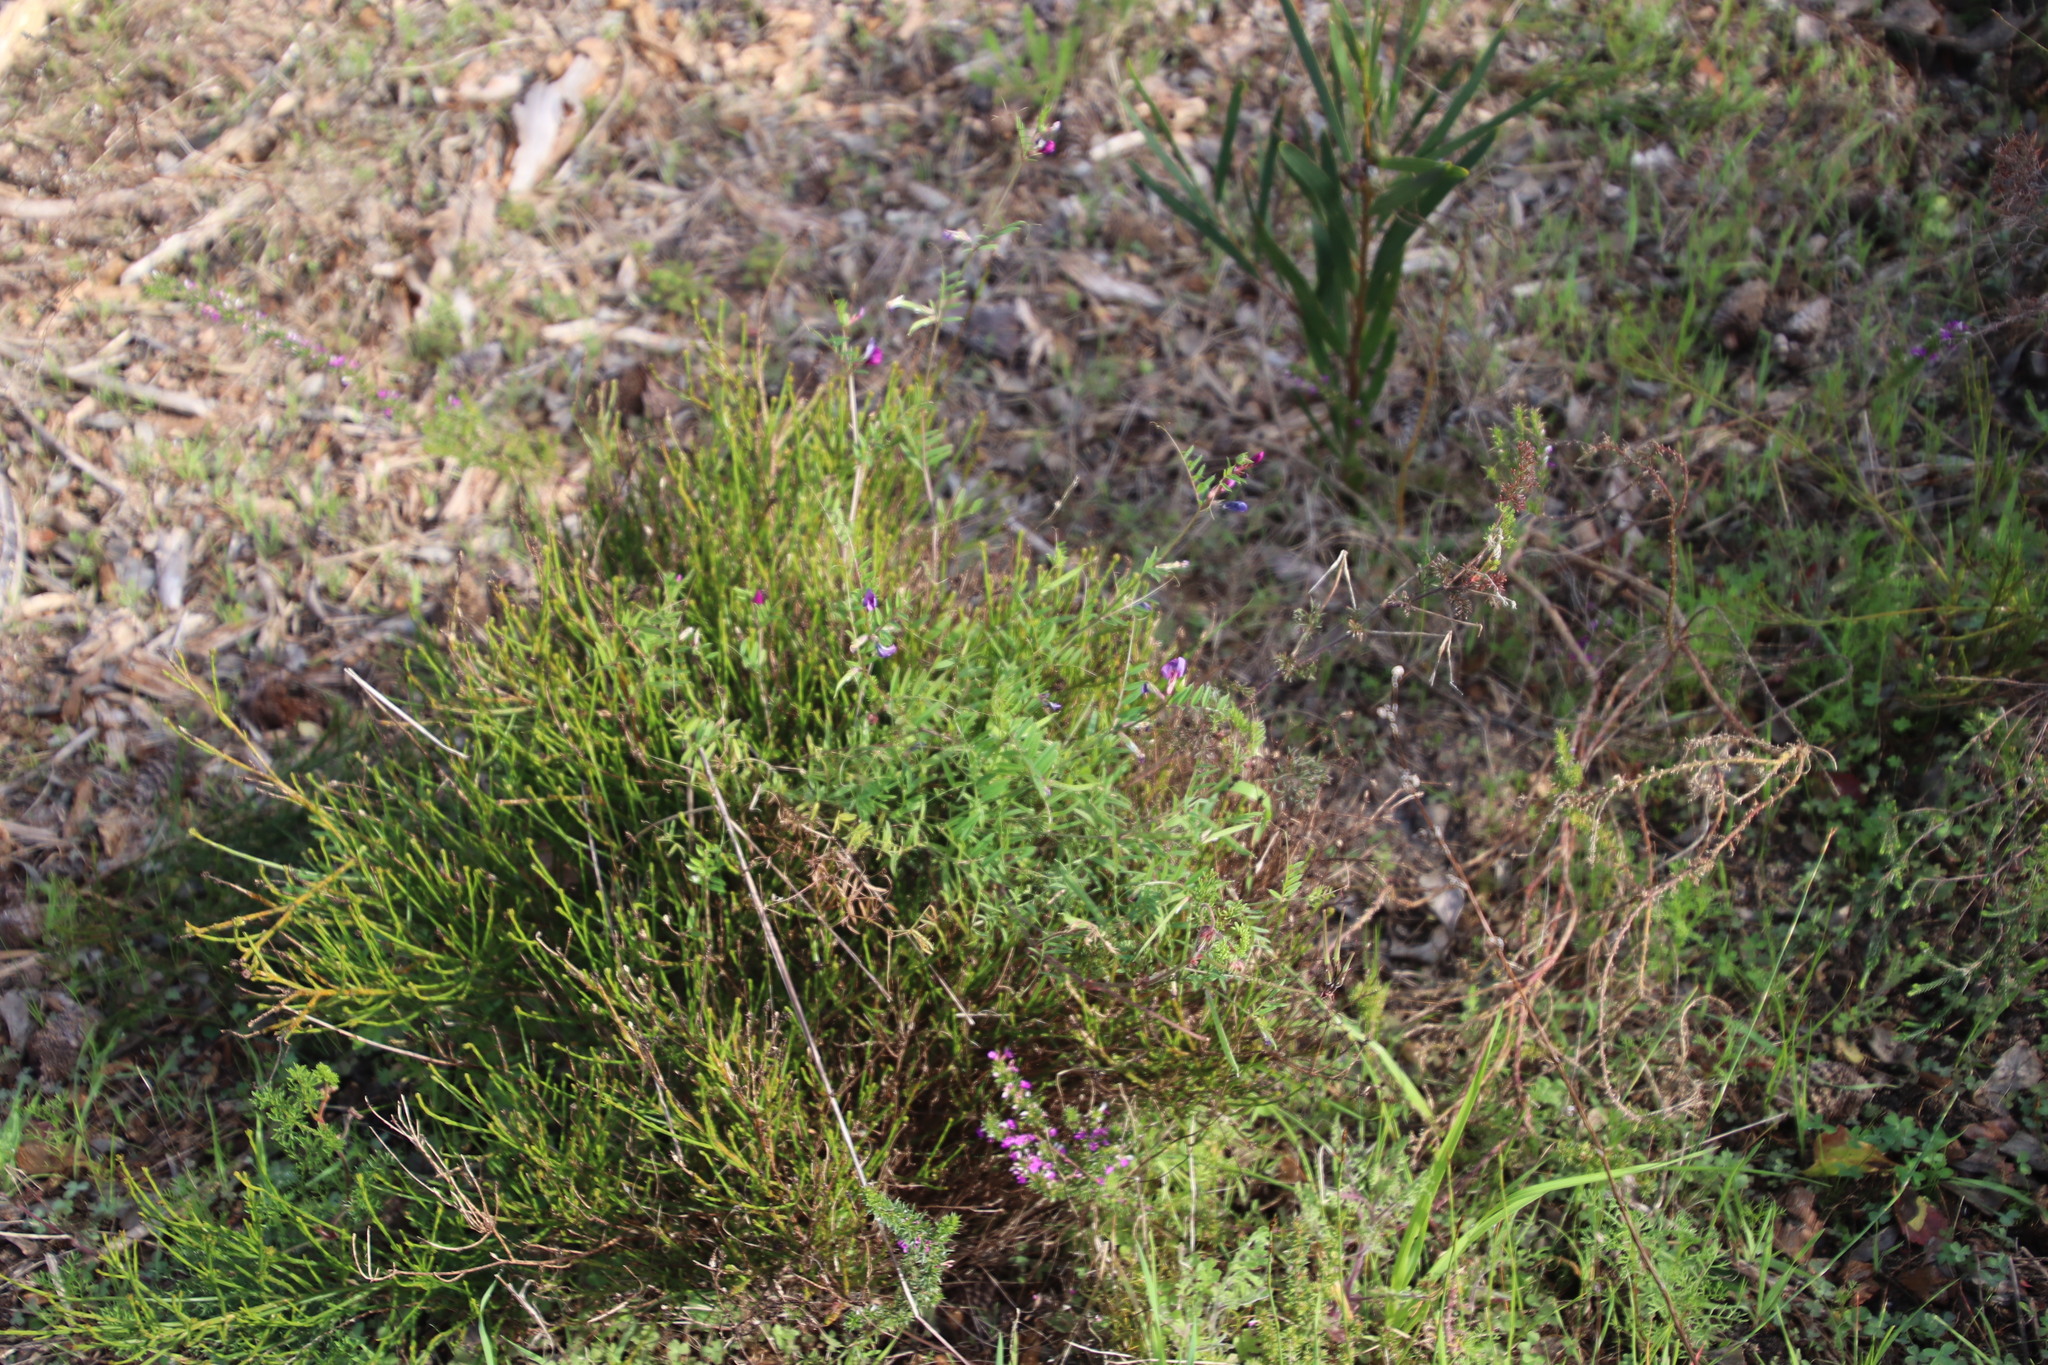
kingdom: Plantae
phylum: Tracheophyta
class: Magnoliopsida
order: Fabales
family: Fabaceae
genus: Vicia
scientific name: Vicia sativa
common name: Garden vetch
